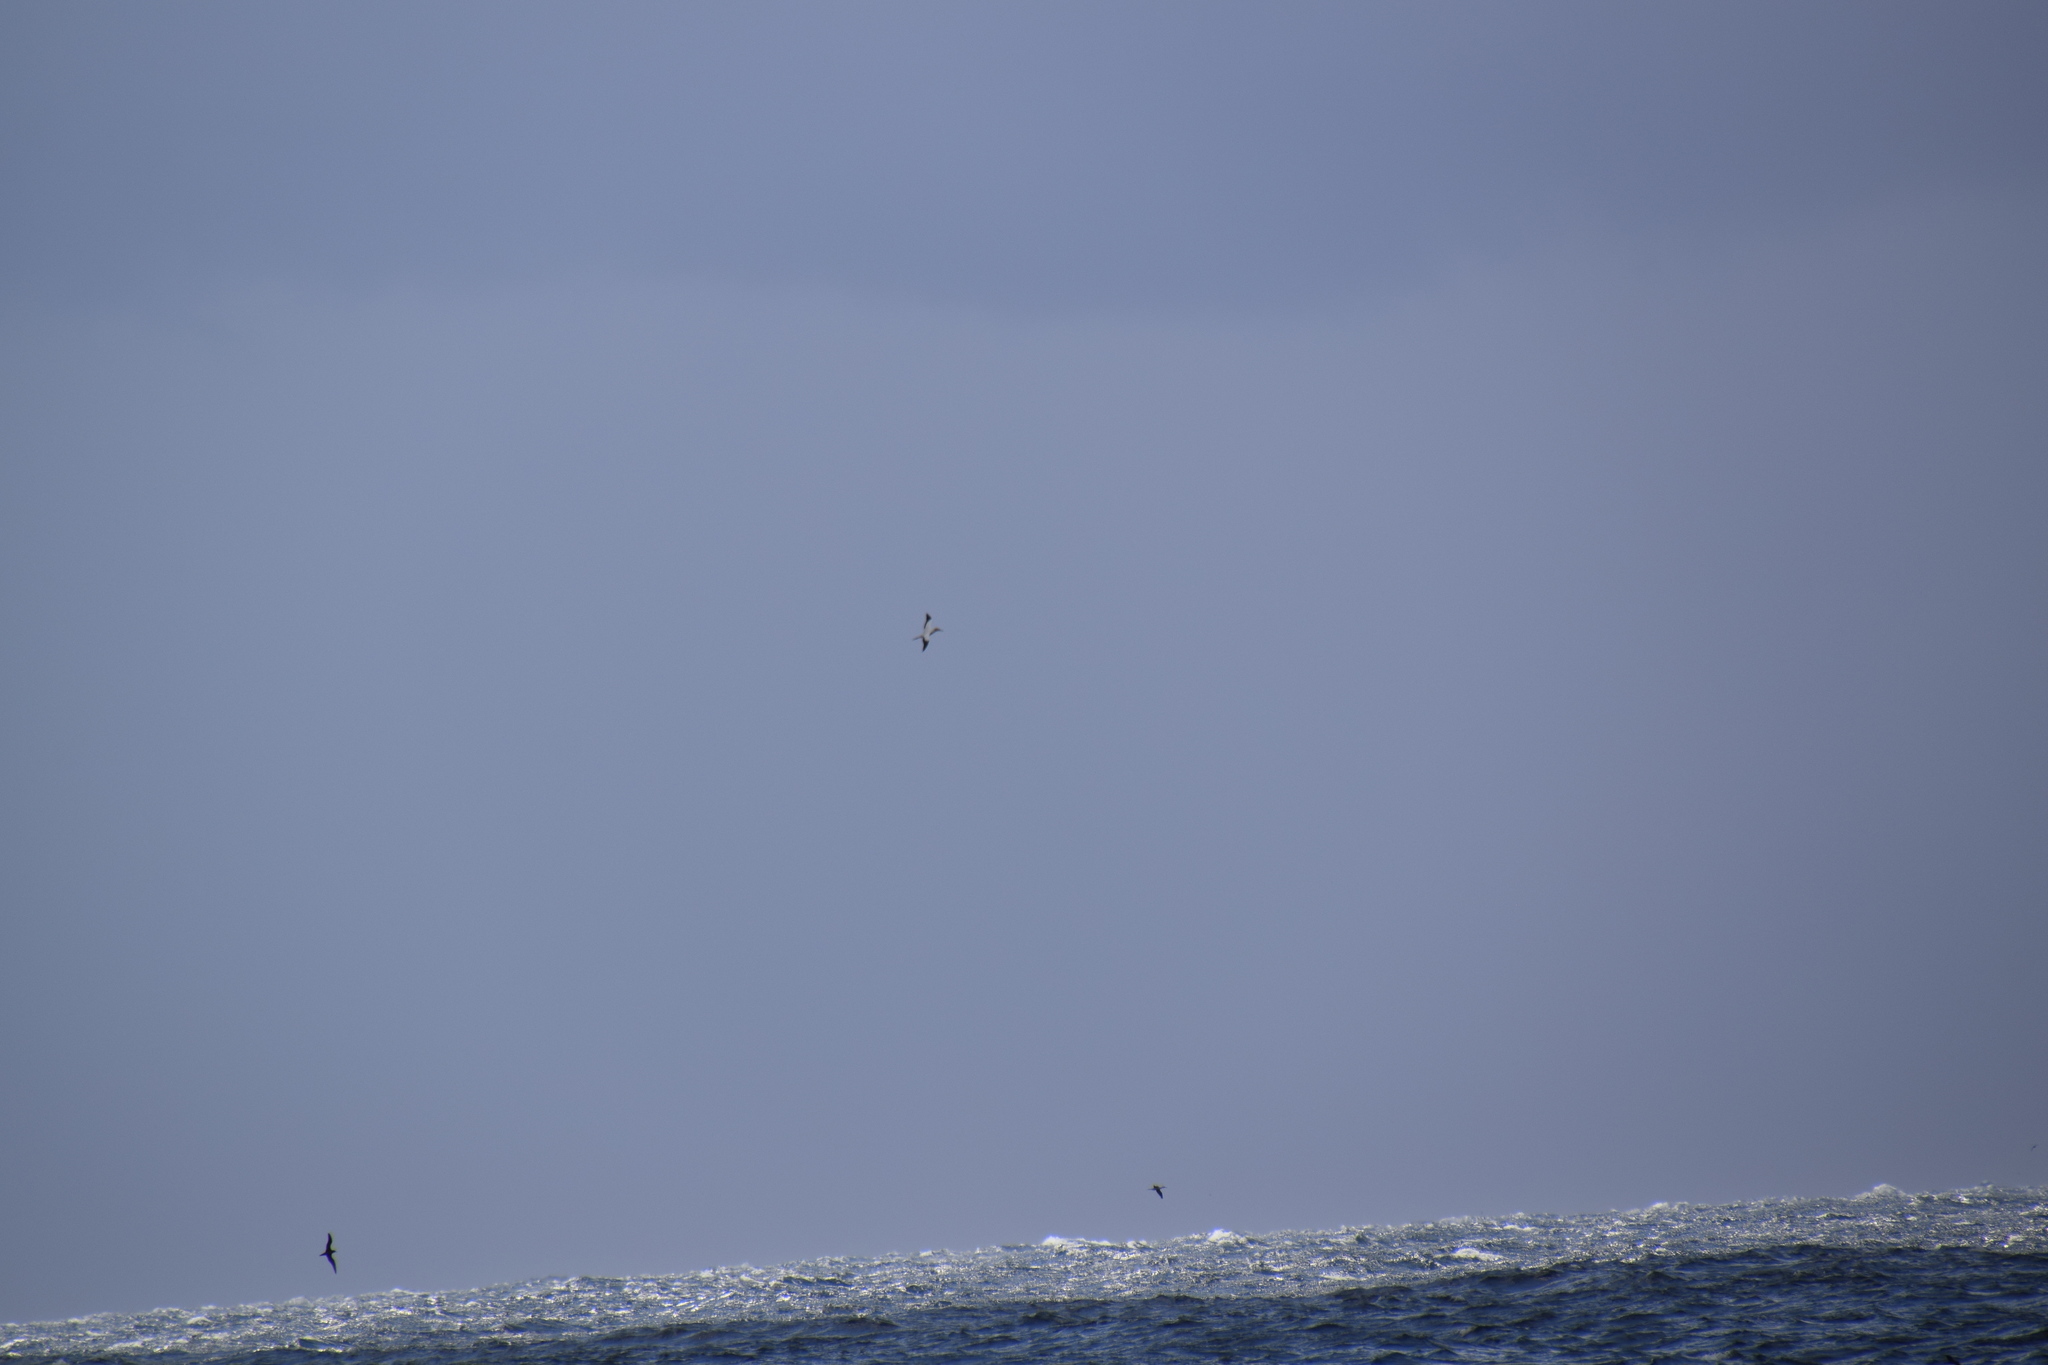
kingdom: Animalia
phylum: Chordata
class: Aves
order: Suliformes
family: Sulidae
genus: Morus
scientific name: Morus serrator
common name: Australasian gannet
